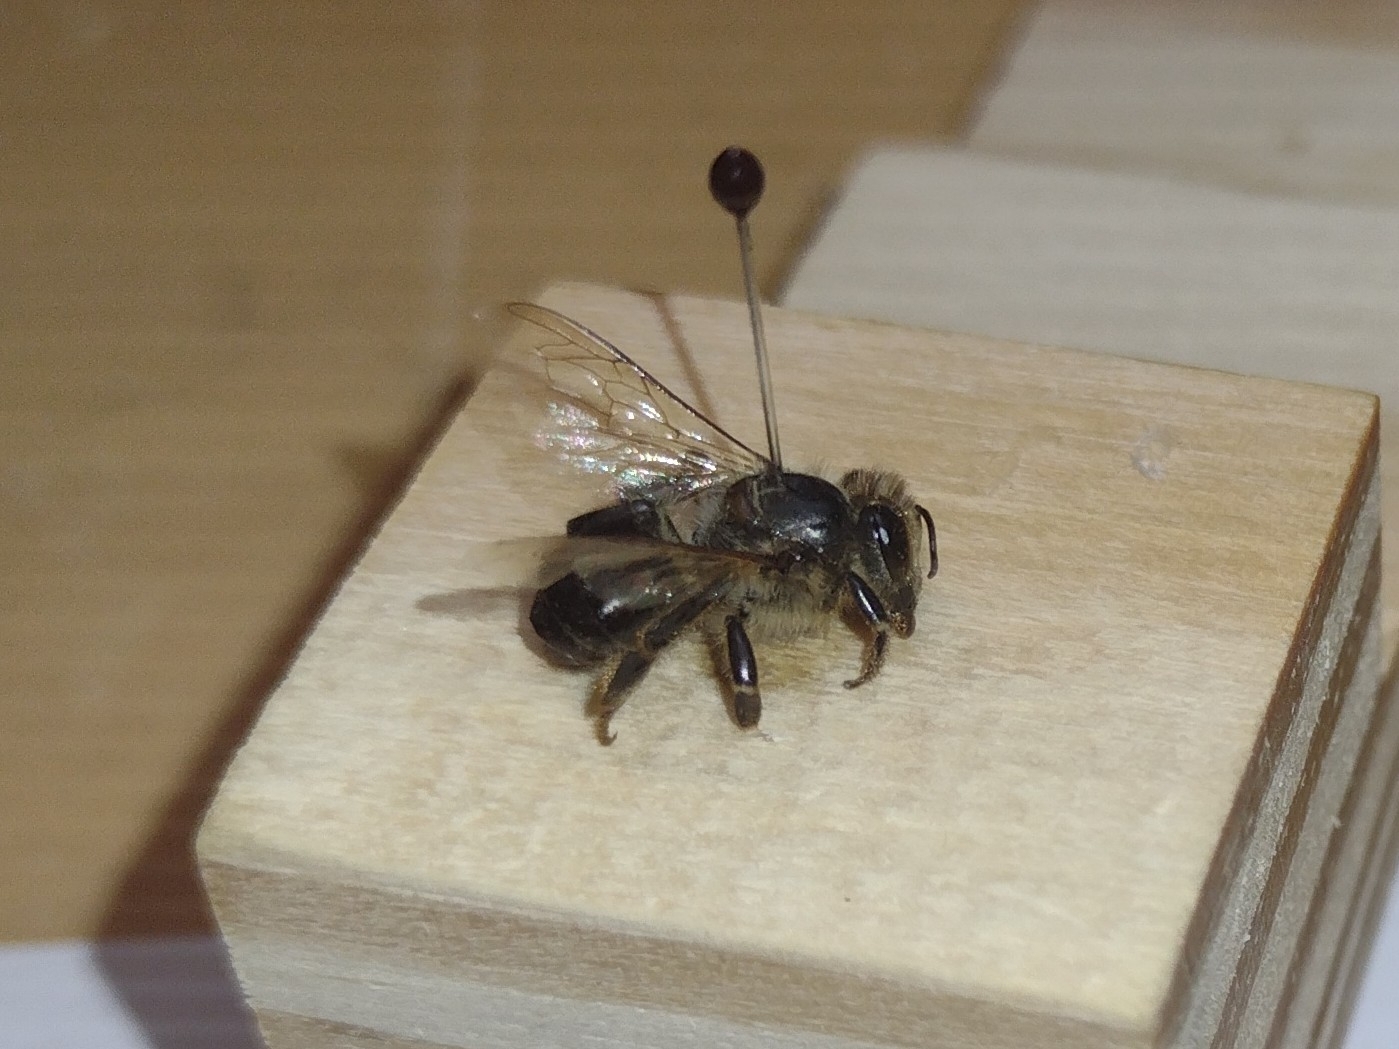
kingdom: Animalia
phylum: Arthropoda
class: Insecta
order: Hymenoptera
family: Apidae
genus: Apis
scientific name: Apis mellifera
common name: Honey bee
